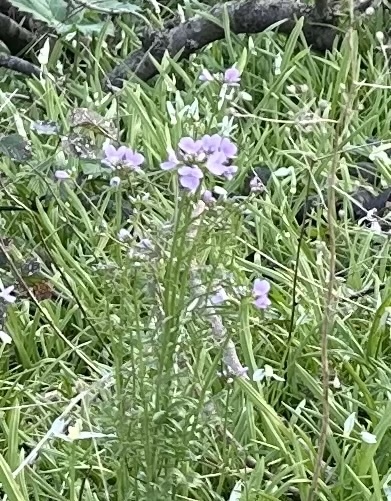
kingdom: Plantae
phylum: Tracheophyta
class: Magnoliopsida
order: Brassicales
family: Brassicaceae
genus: Cardamine
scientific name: Cardamine pratensis
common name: Cuckoo flower
